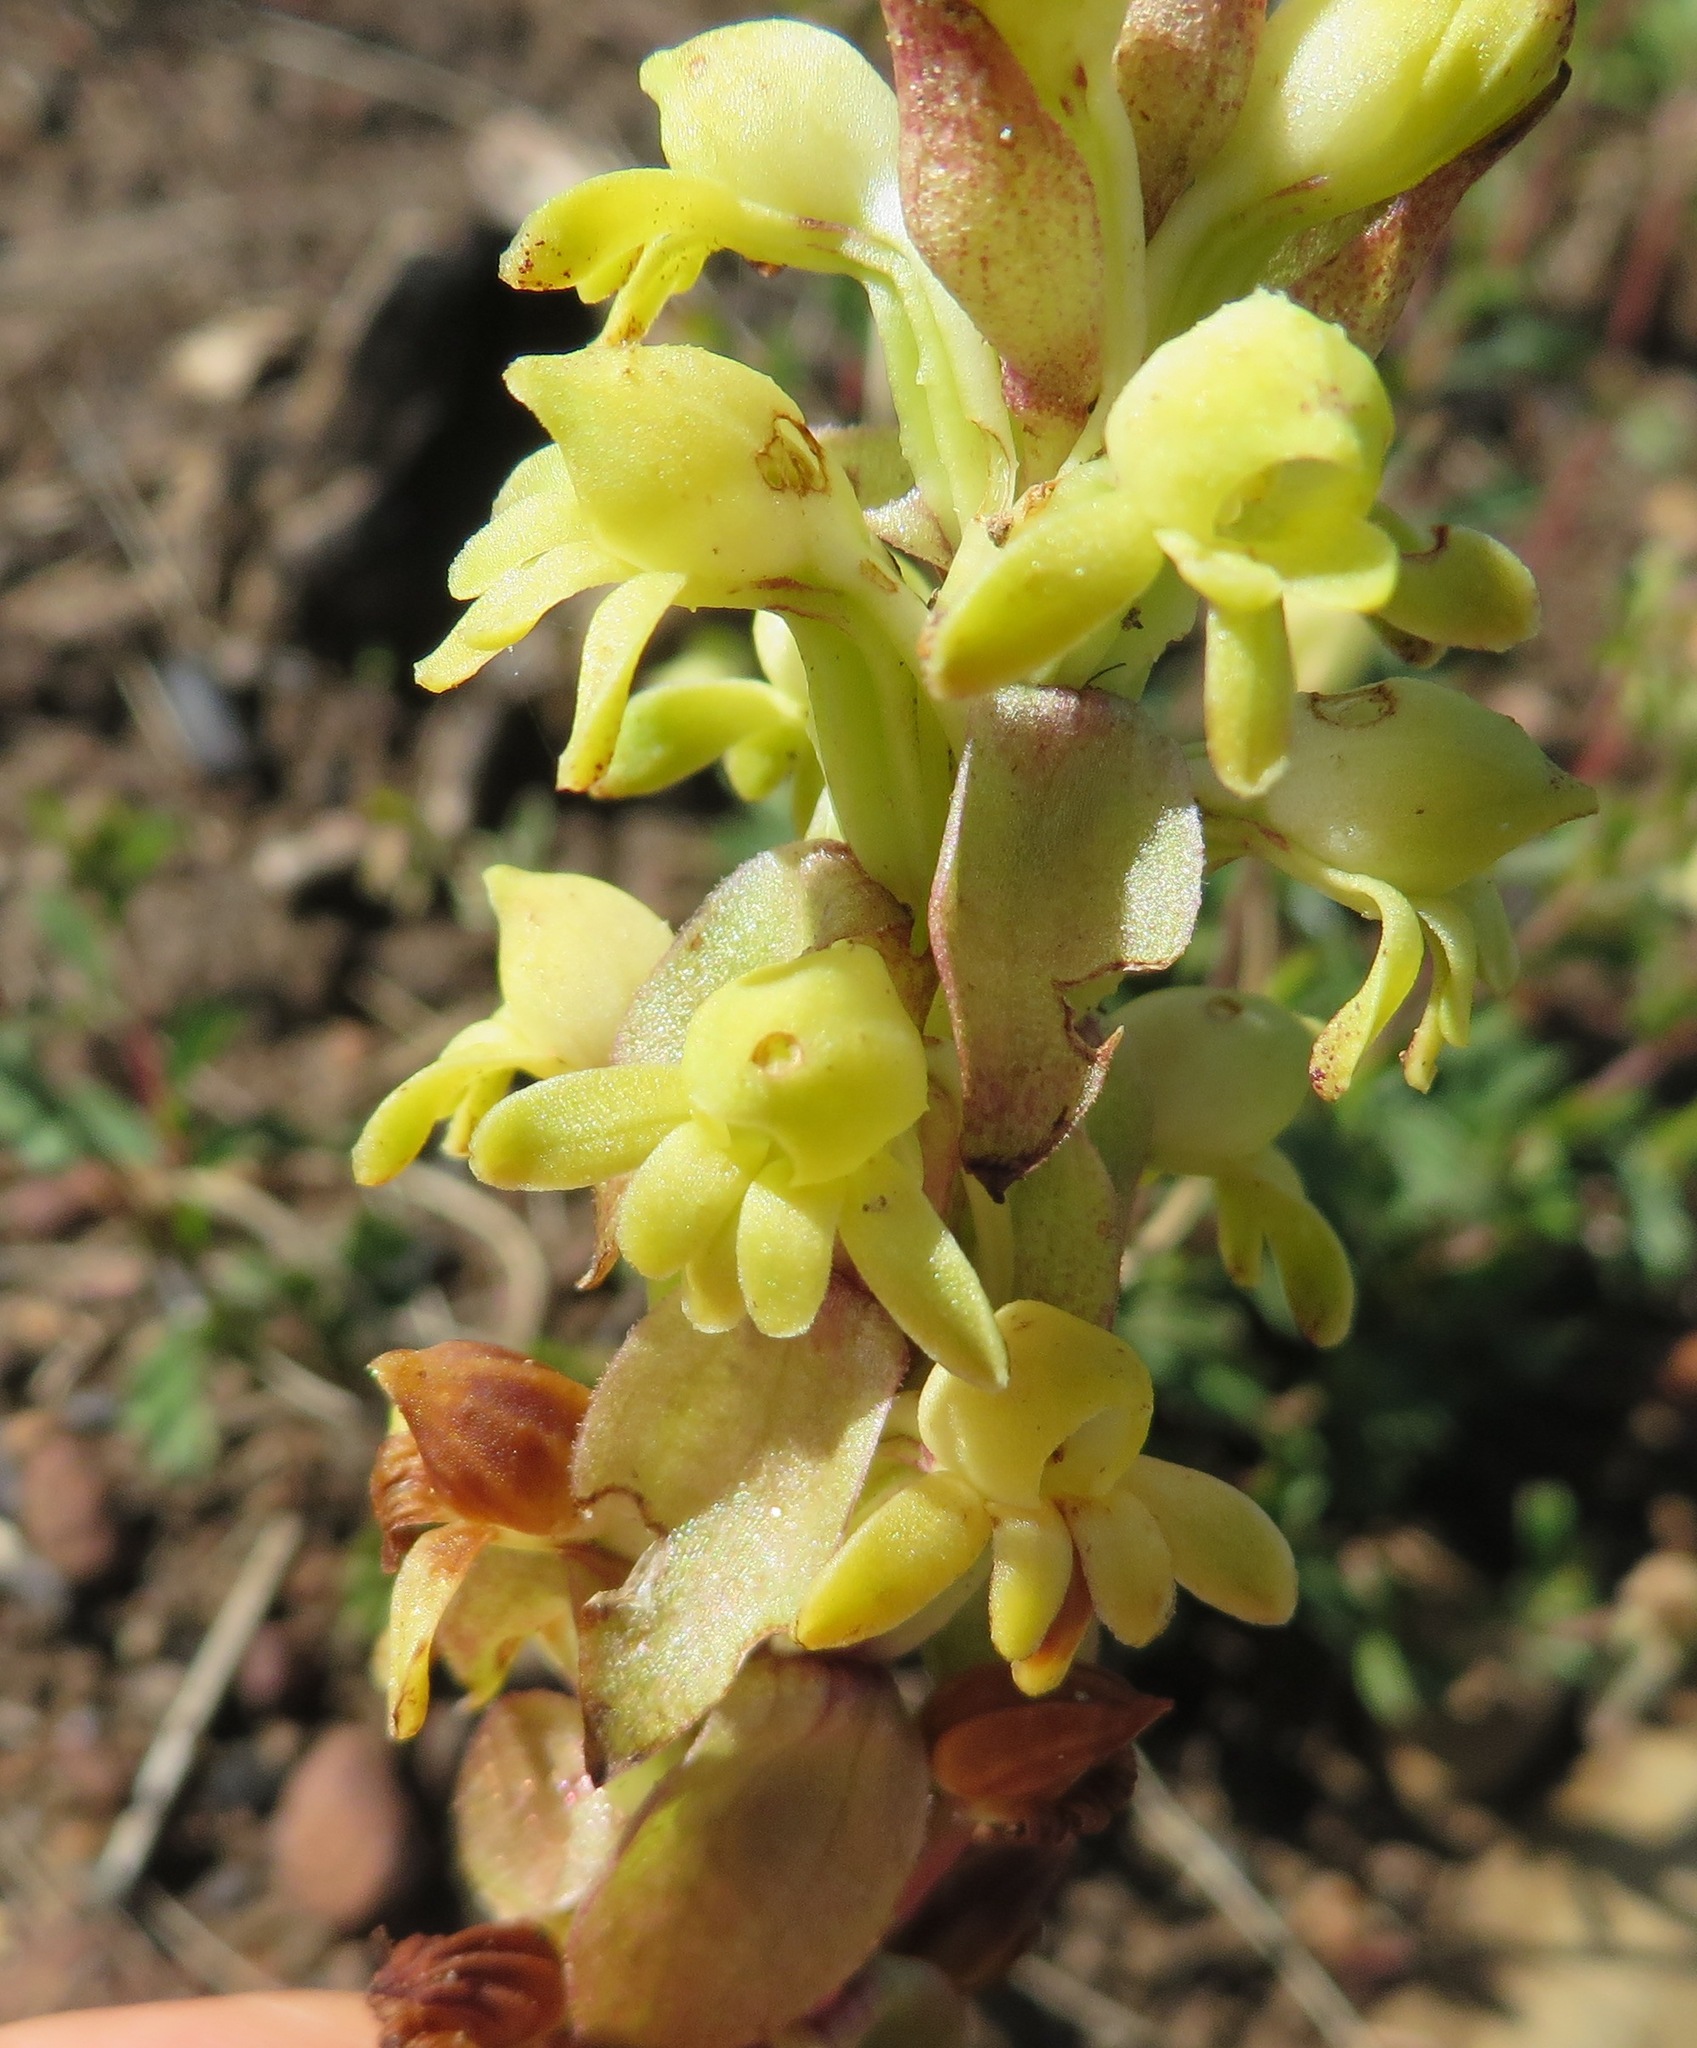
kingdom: Plantae
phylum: Tracheophyta
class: Liliopsida
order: Asparagales
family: Orchidaceae
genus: Satyrium
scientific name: Satyrium odorum
